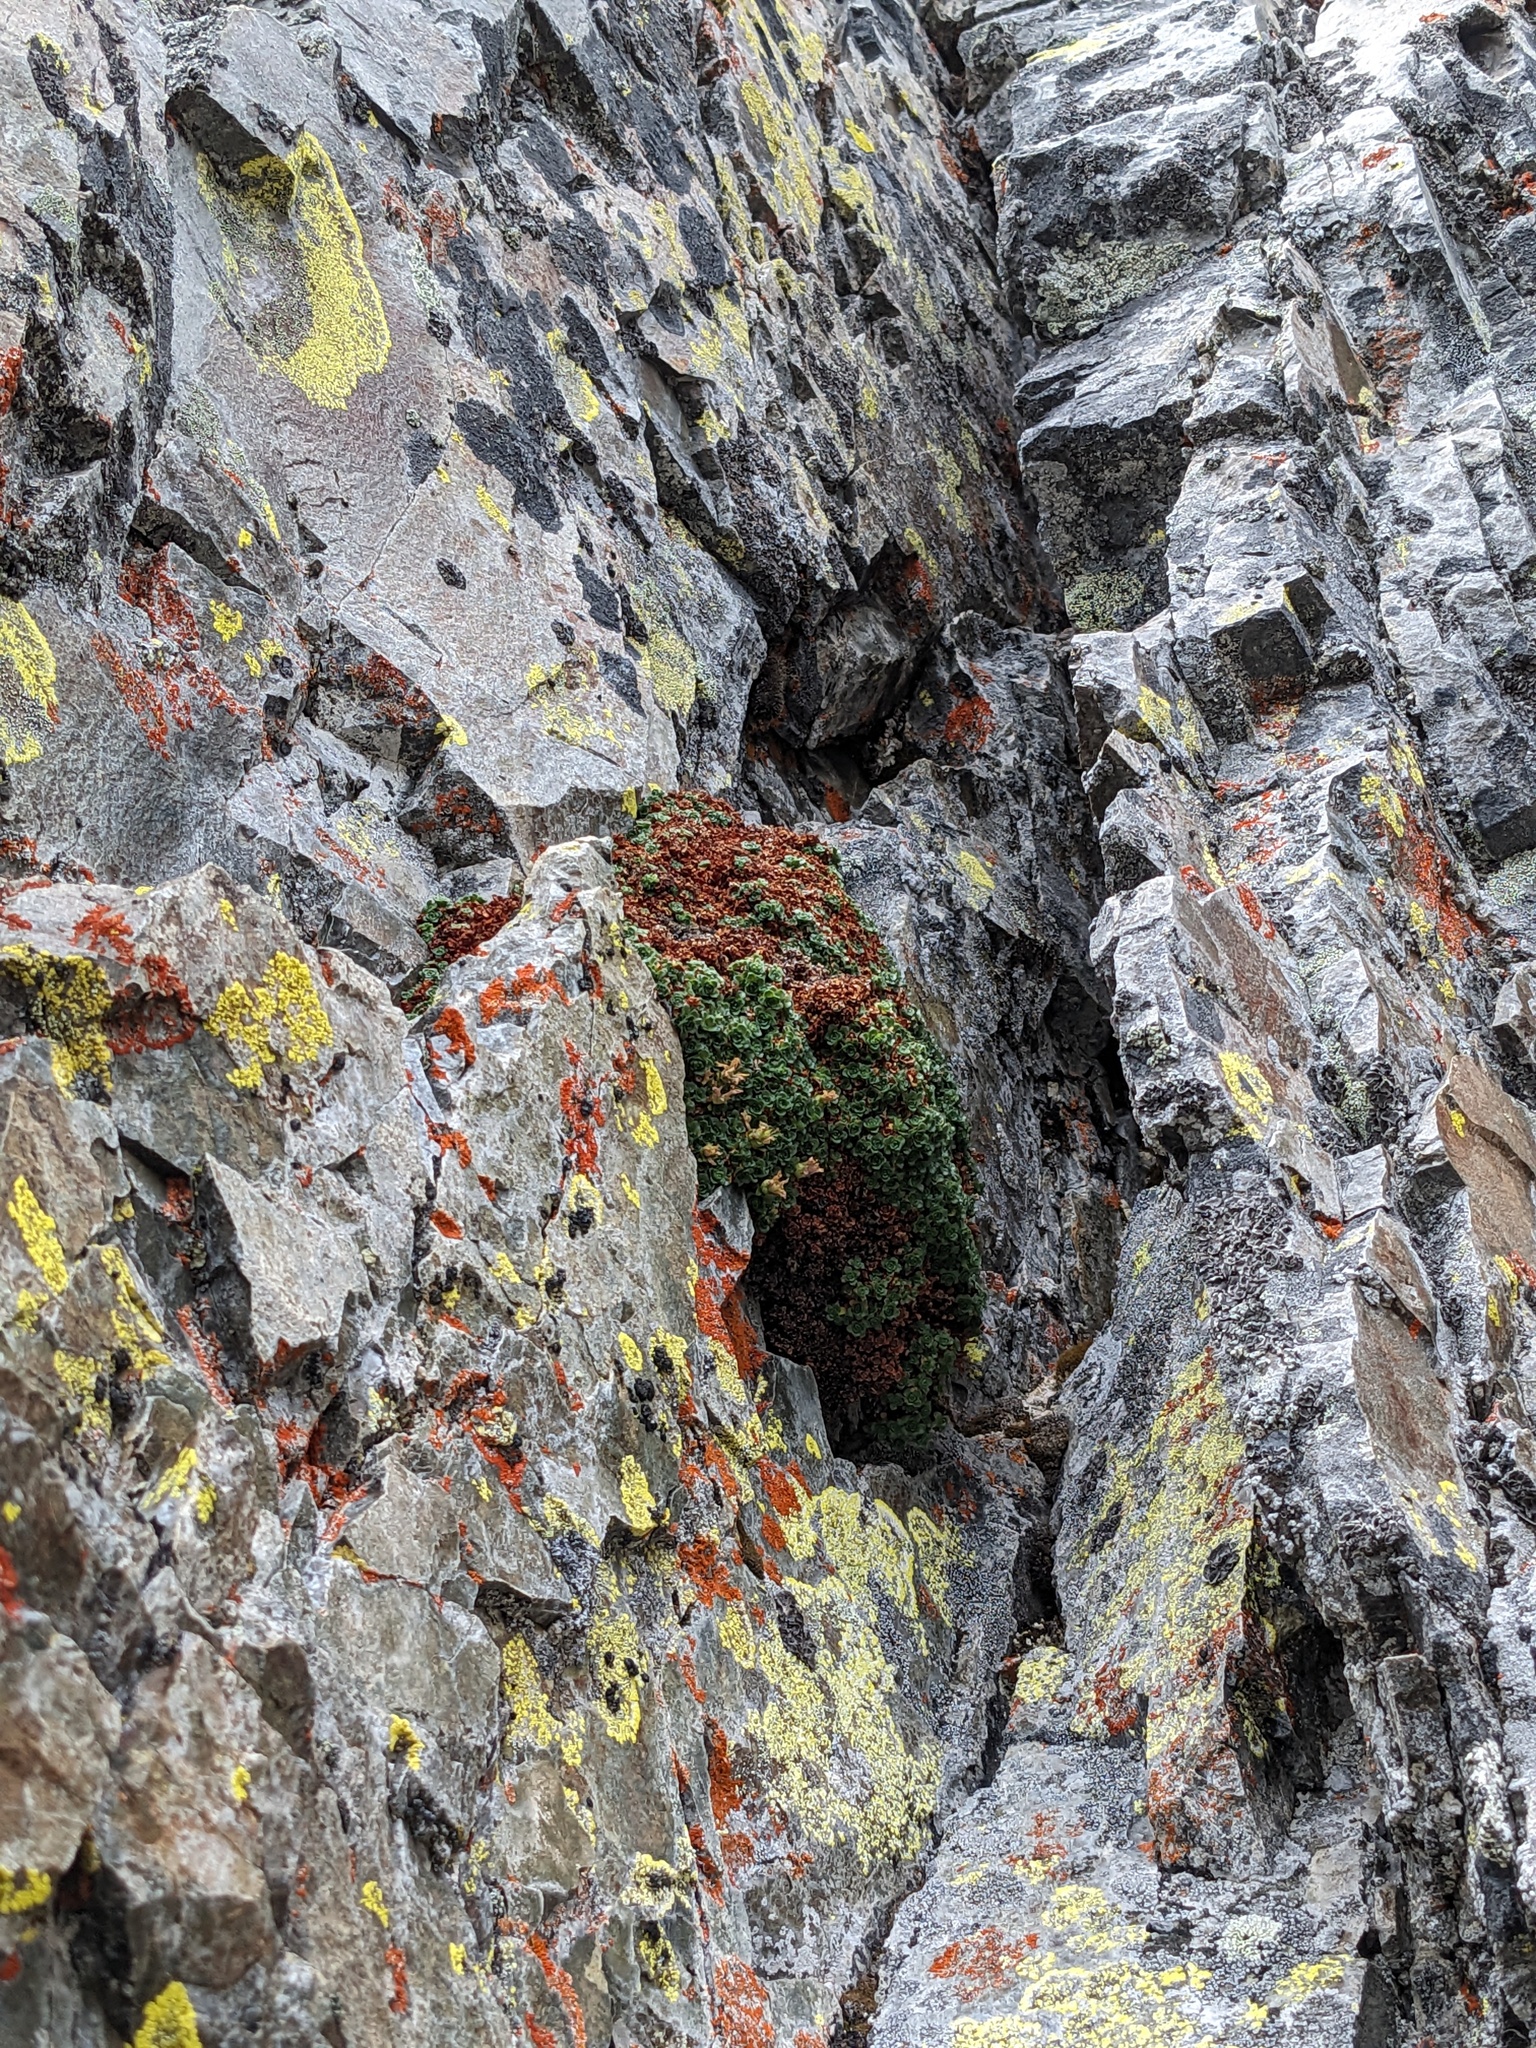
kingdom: Plantae
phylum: Tracheophyta
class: Magnoliopsida
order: Saxifragales
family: Saxifragaceae
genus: Saxifraga
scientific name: Saxifraga oppositifolia
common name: Purple saxifrage
